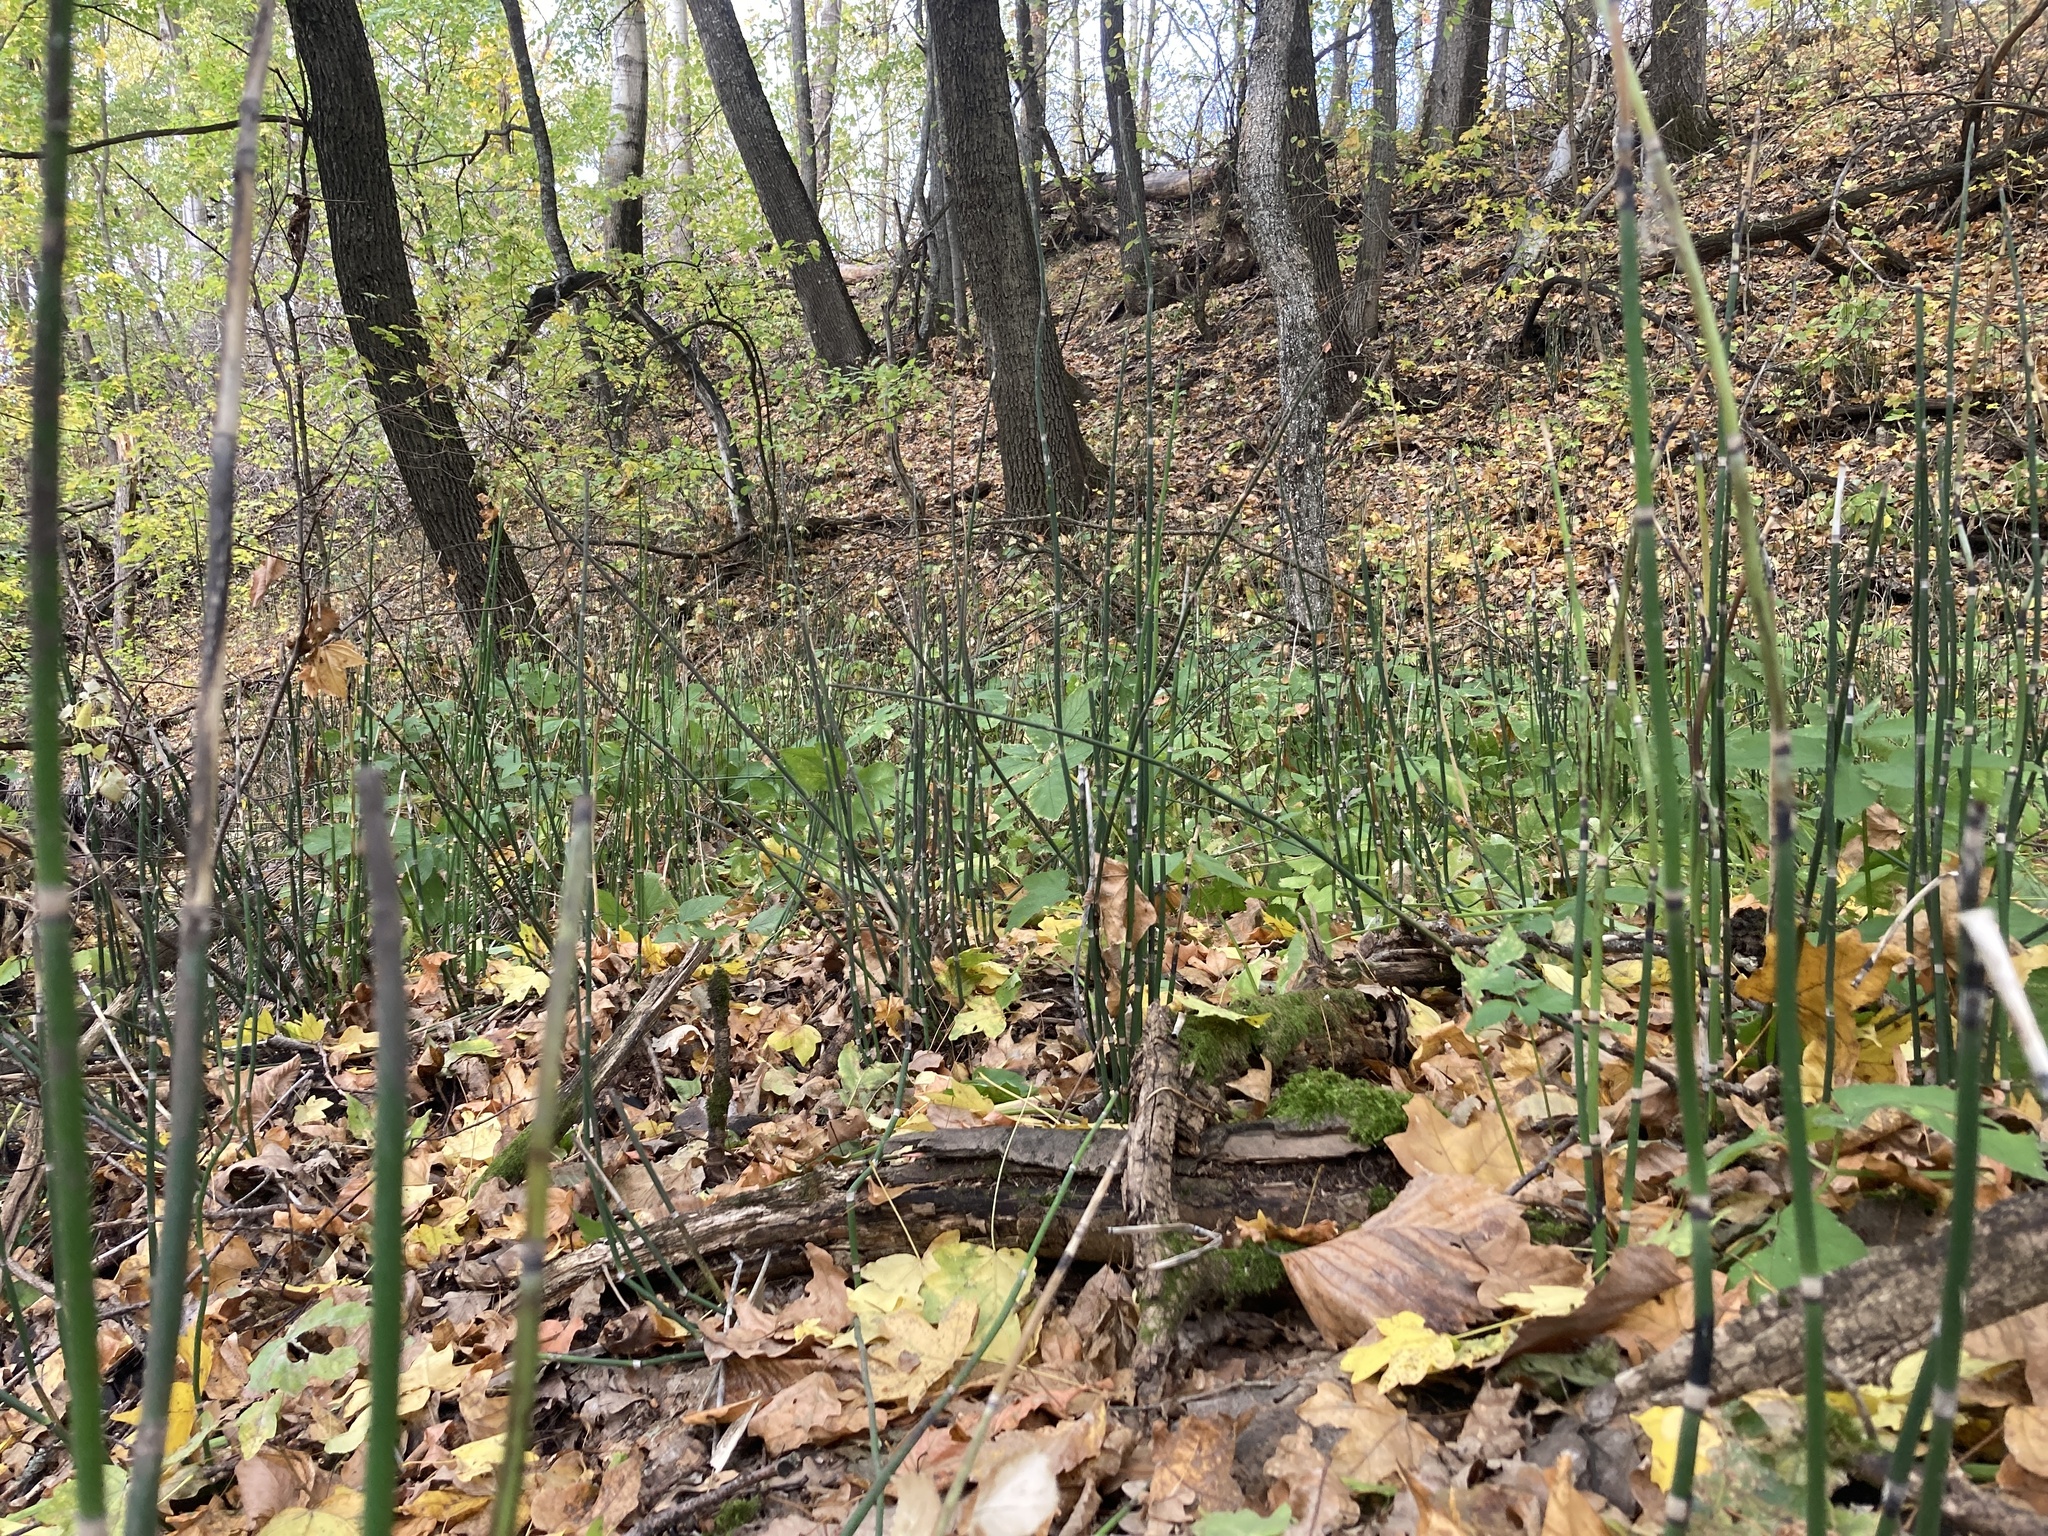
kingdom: Plantae
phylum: Tracheophyta
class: Polypodiopsida
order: Equisetales
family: Equisetaceae
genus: Equisetum
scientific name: Equisetum hyemale
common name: Rough horsetail
